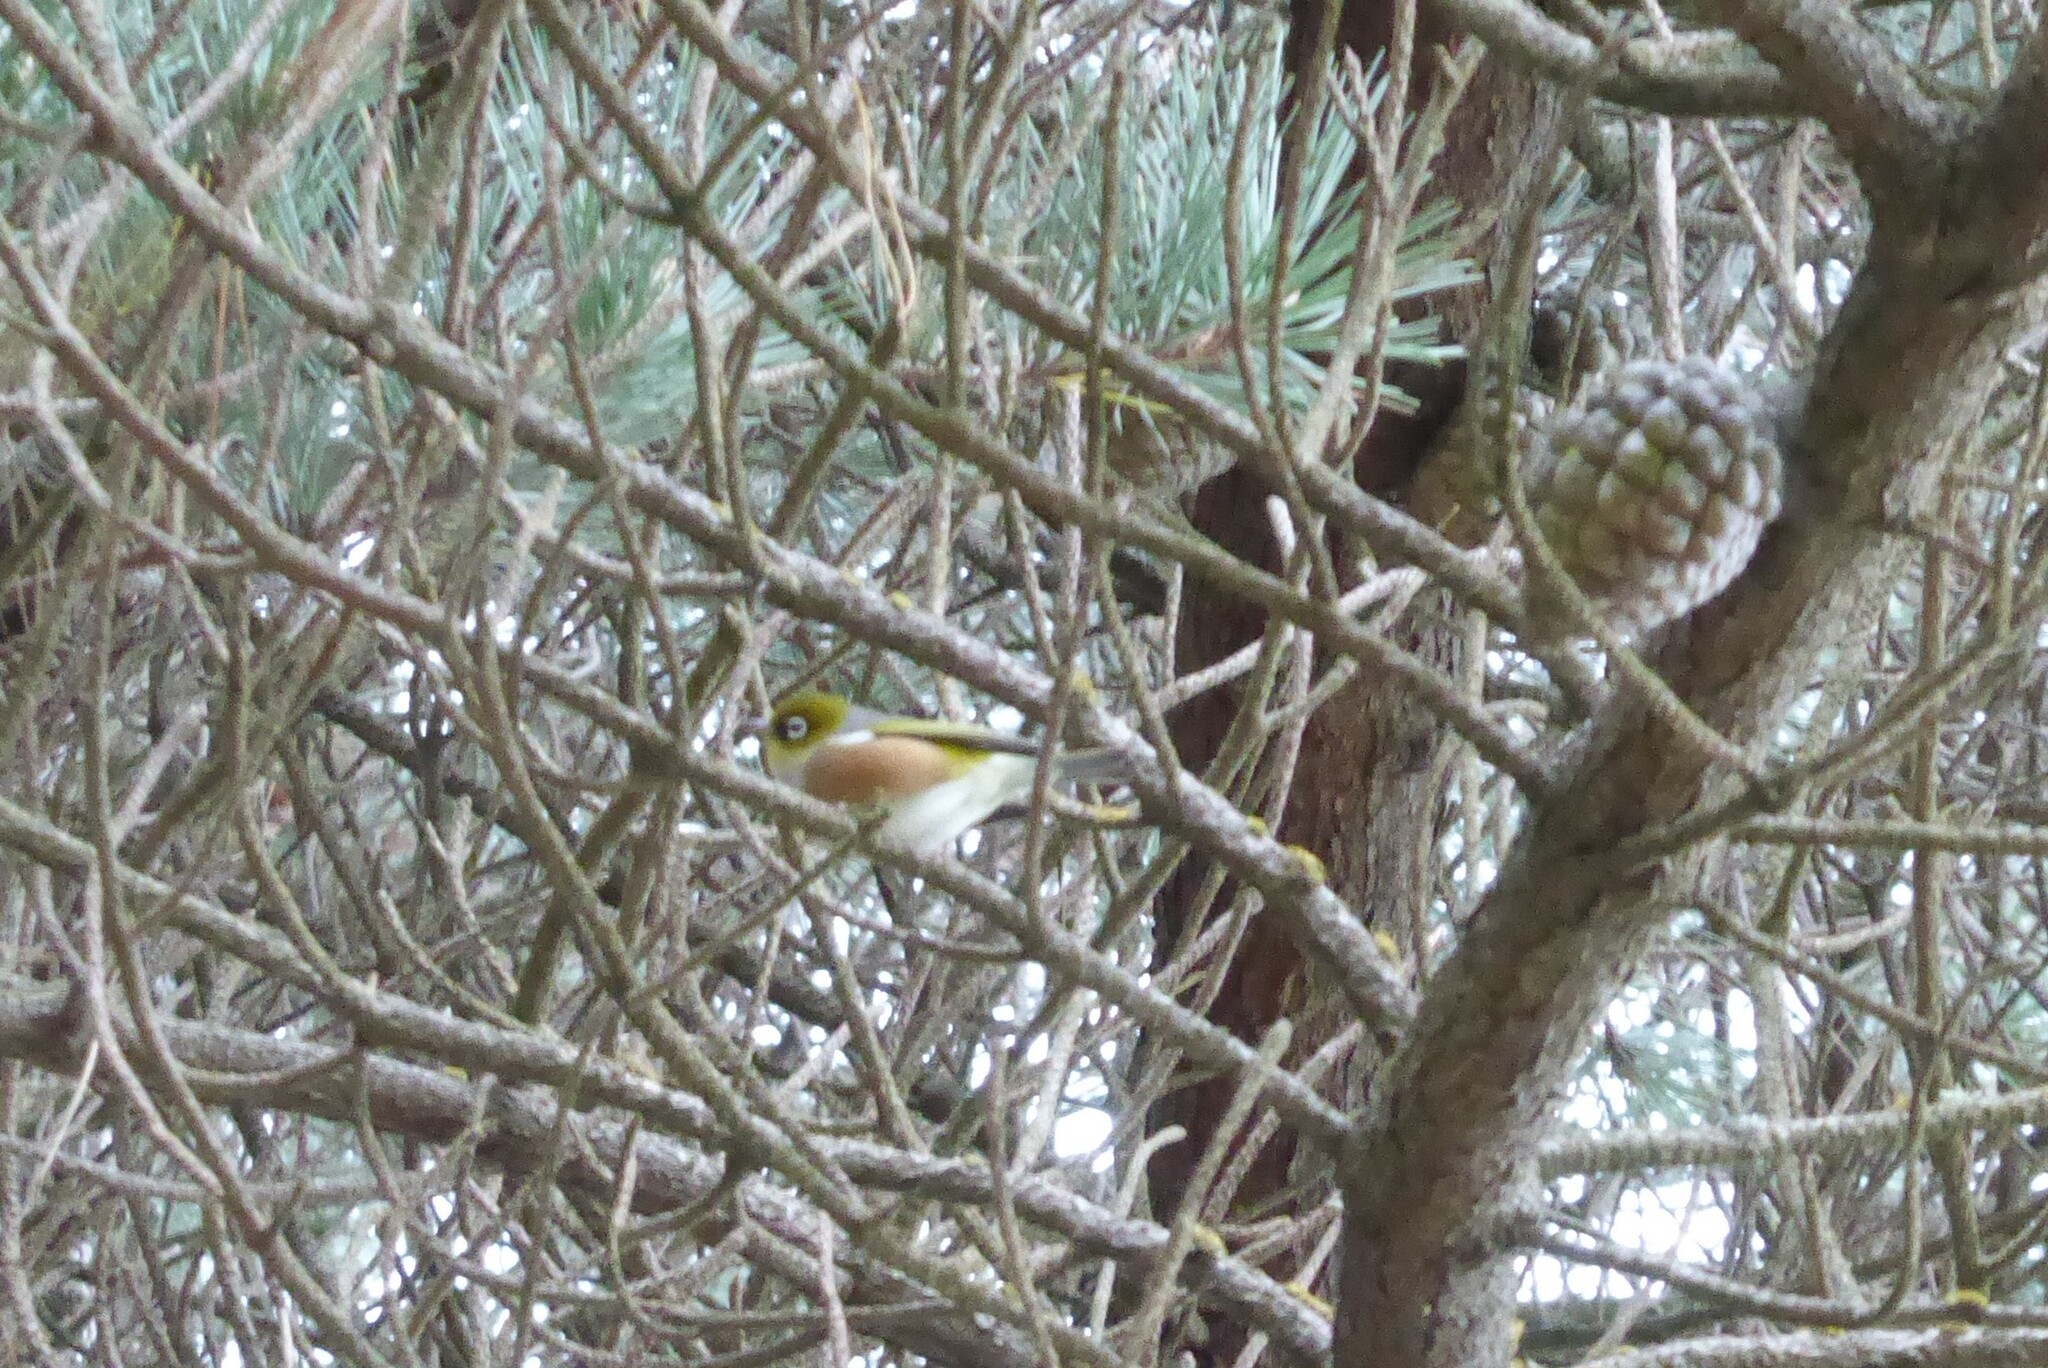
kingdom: Animalia
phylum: Chordata
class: Aves
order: Passeriformes
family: Zosteropidae
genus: Zosterops
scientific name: Zosterops lateralis
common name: Silvereye
